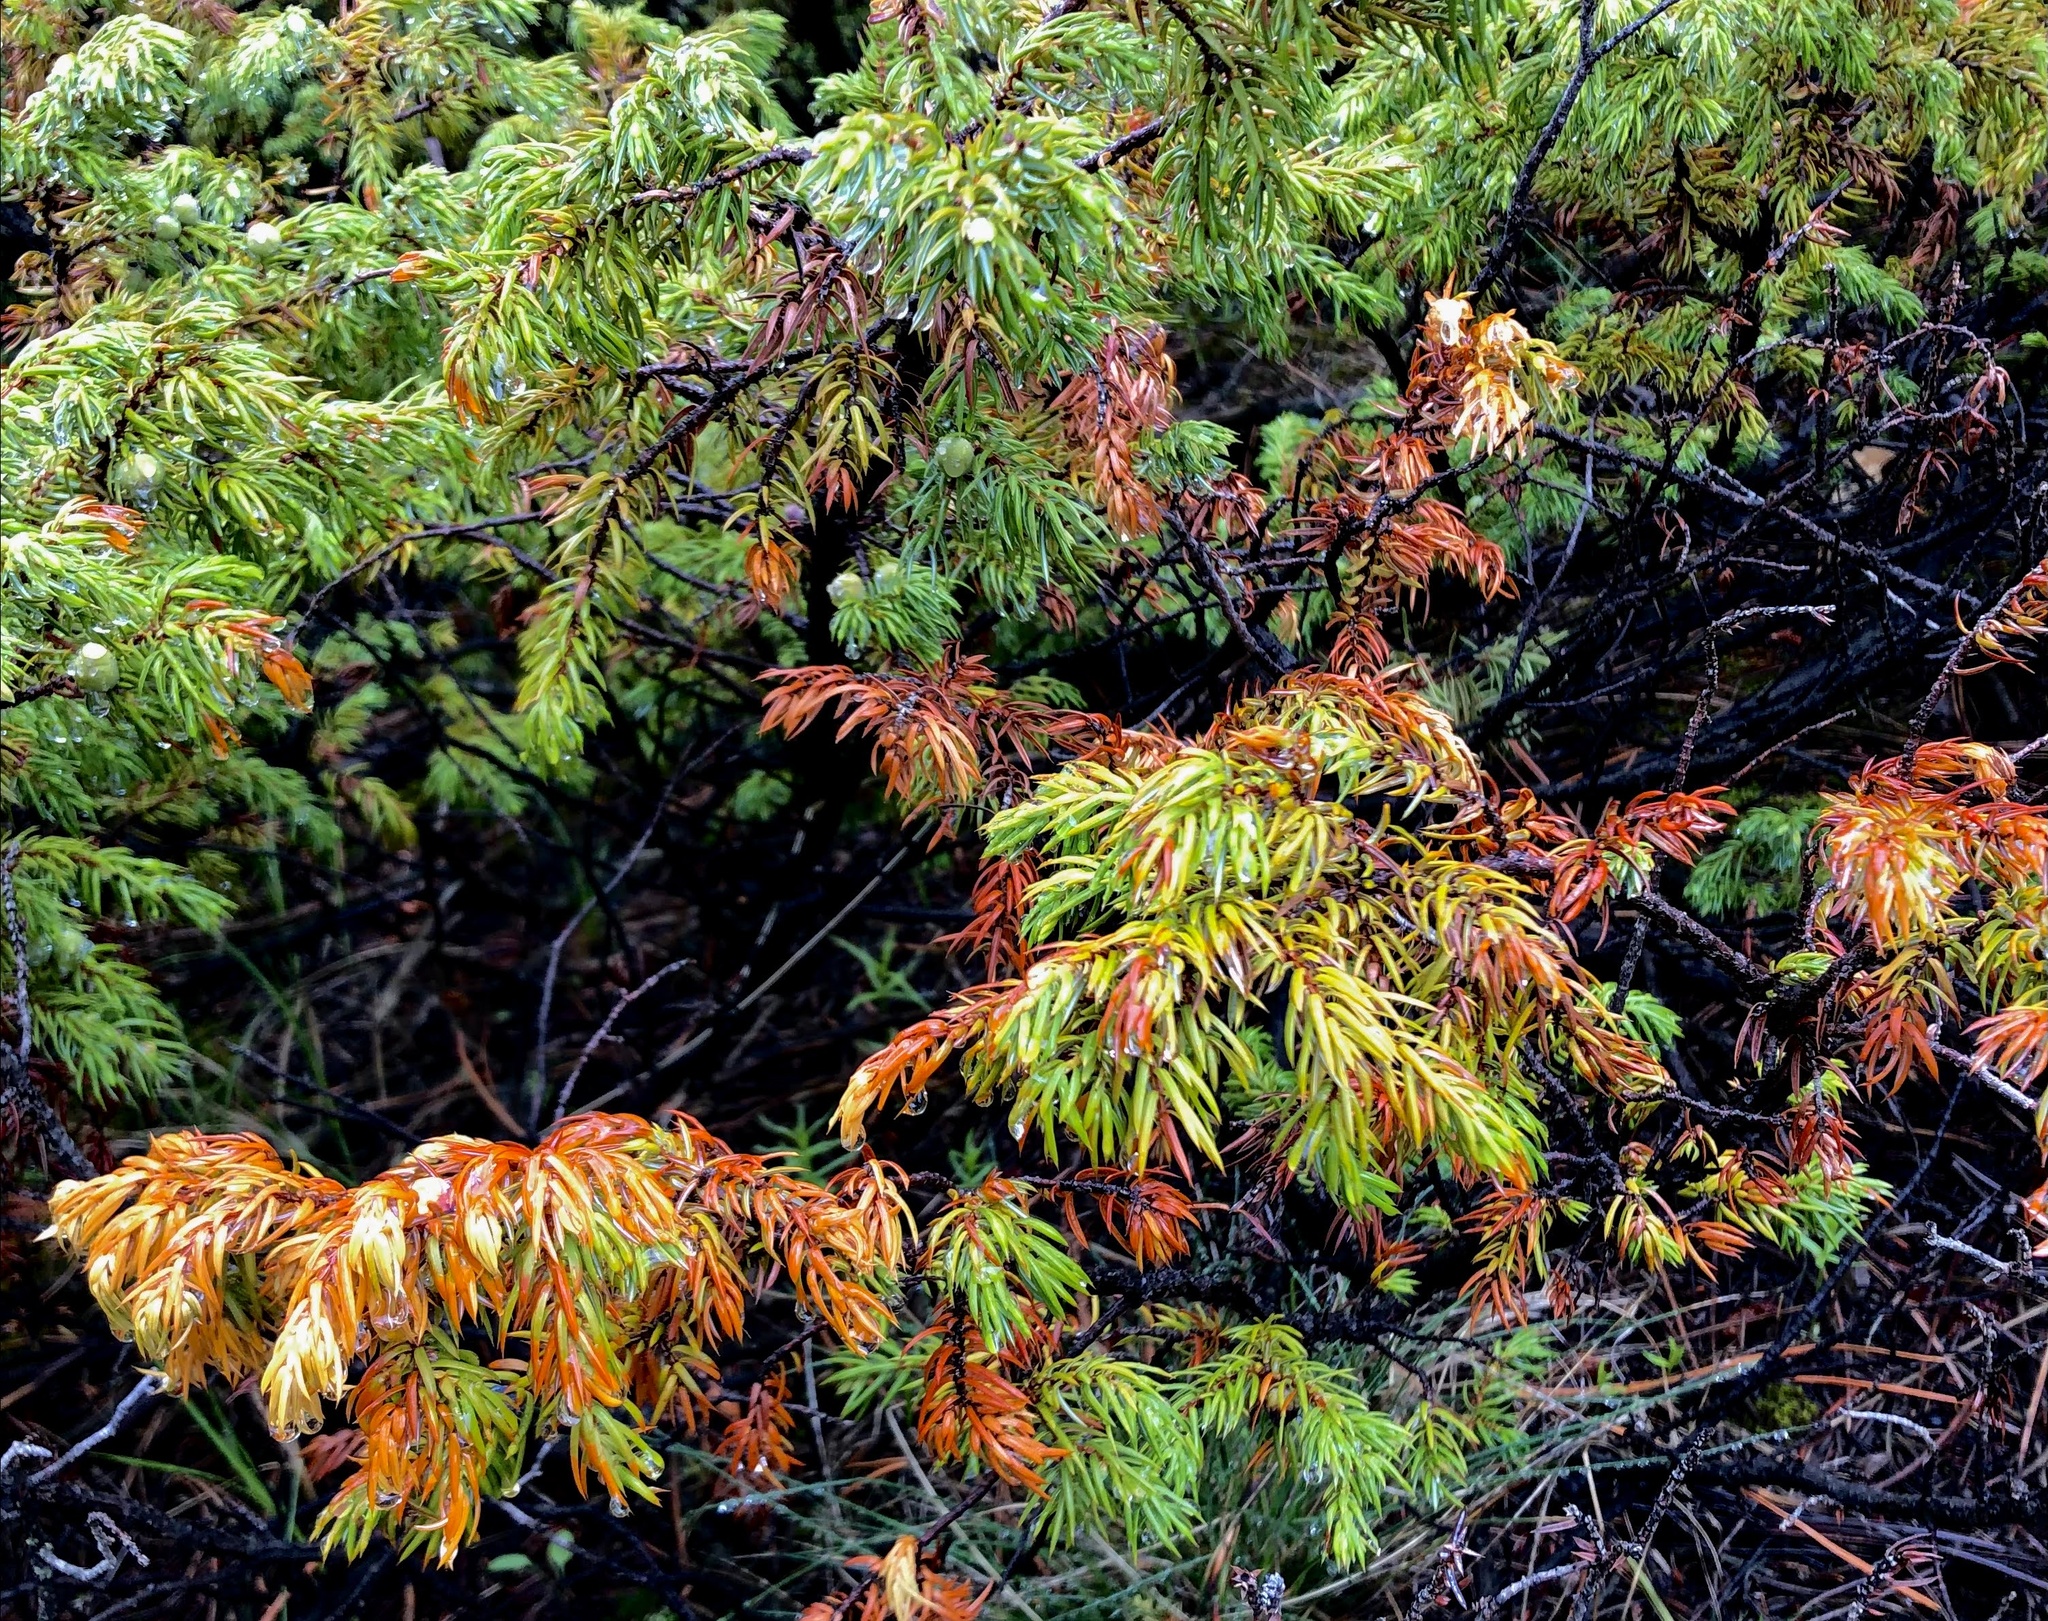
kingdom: Plantae
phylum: Tracheophyta
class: Pinopsida
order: Pinales
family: Cupressaceae
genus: Juniperus
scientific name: Juniperus communis
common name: Common juniper
